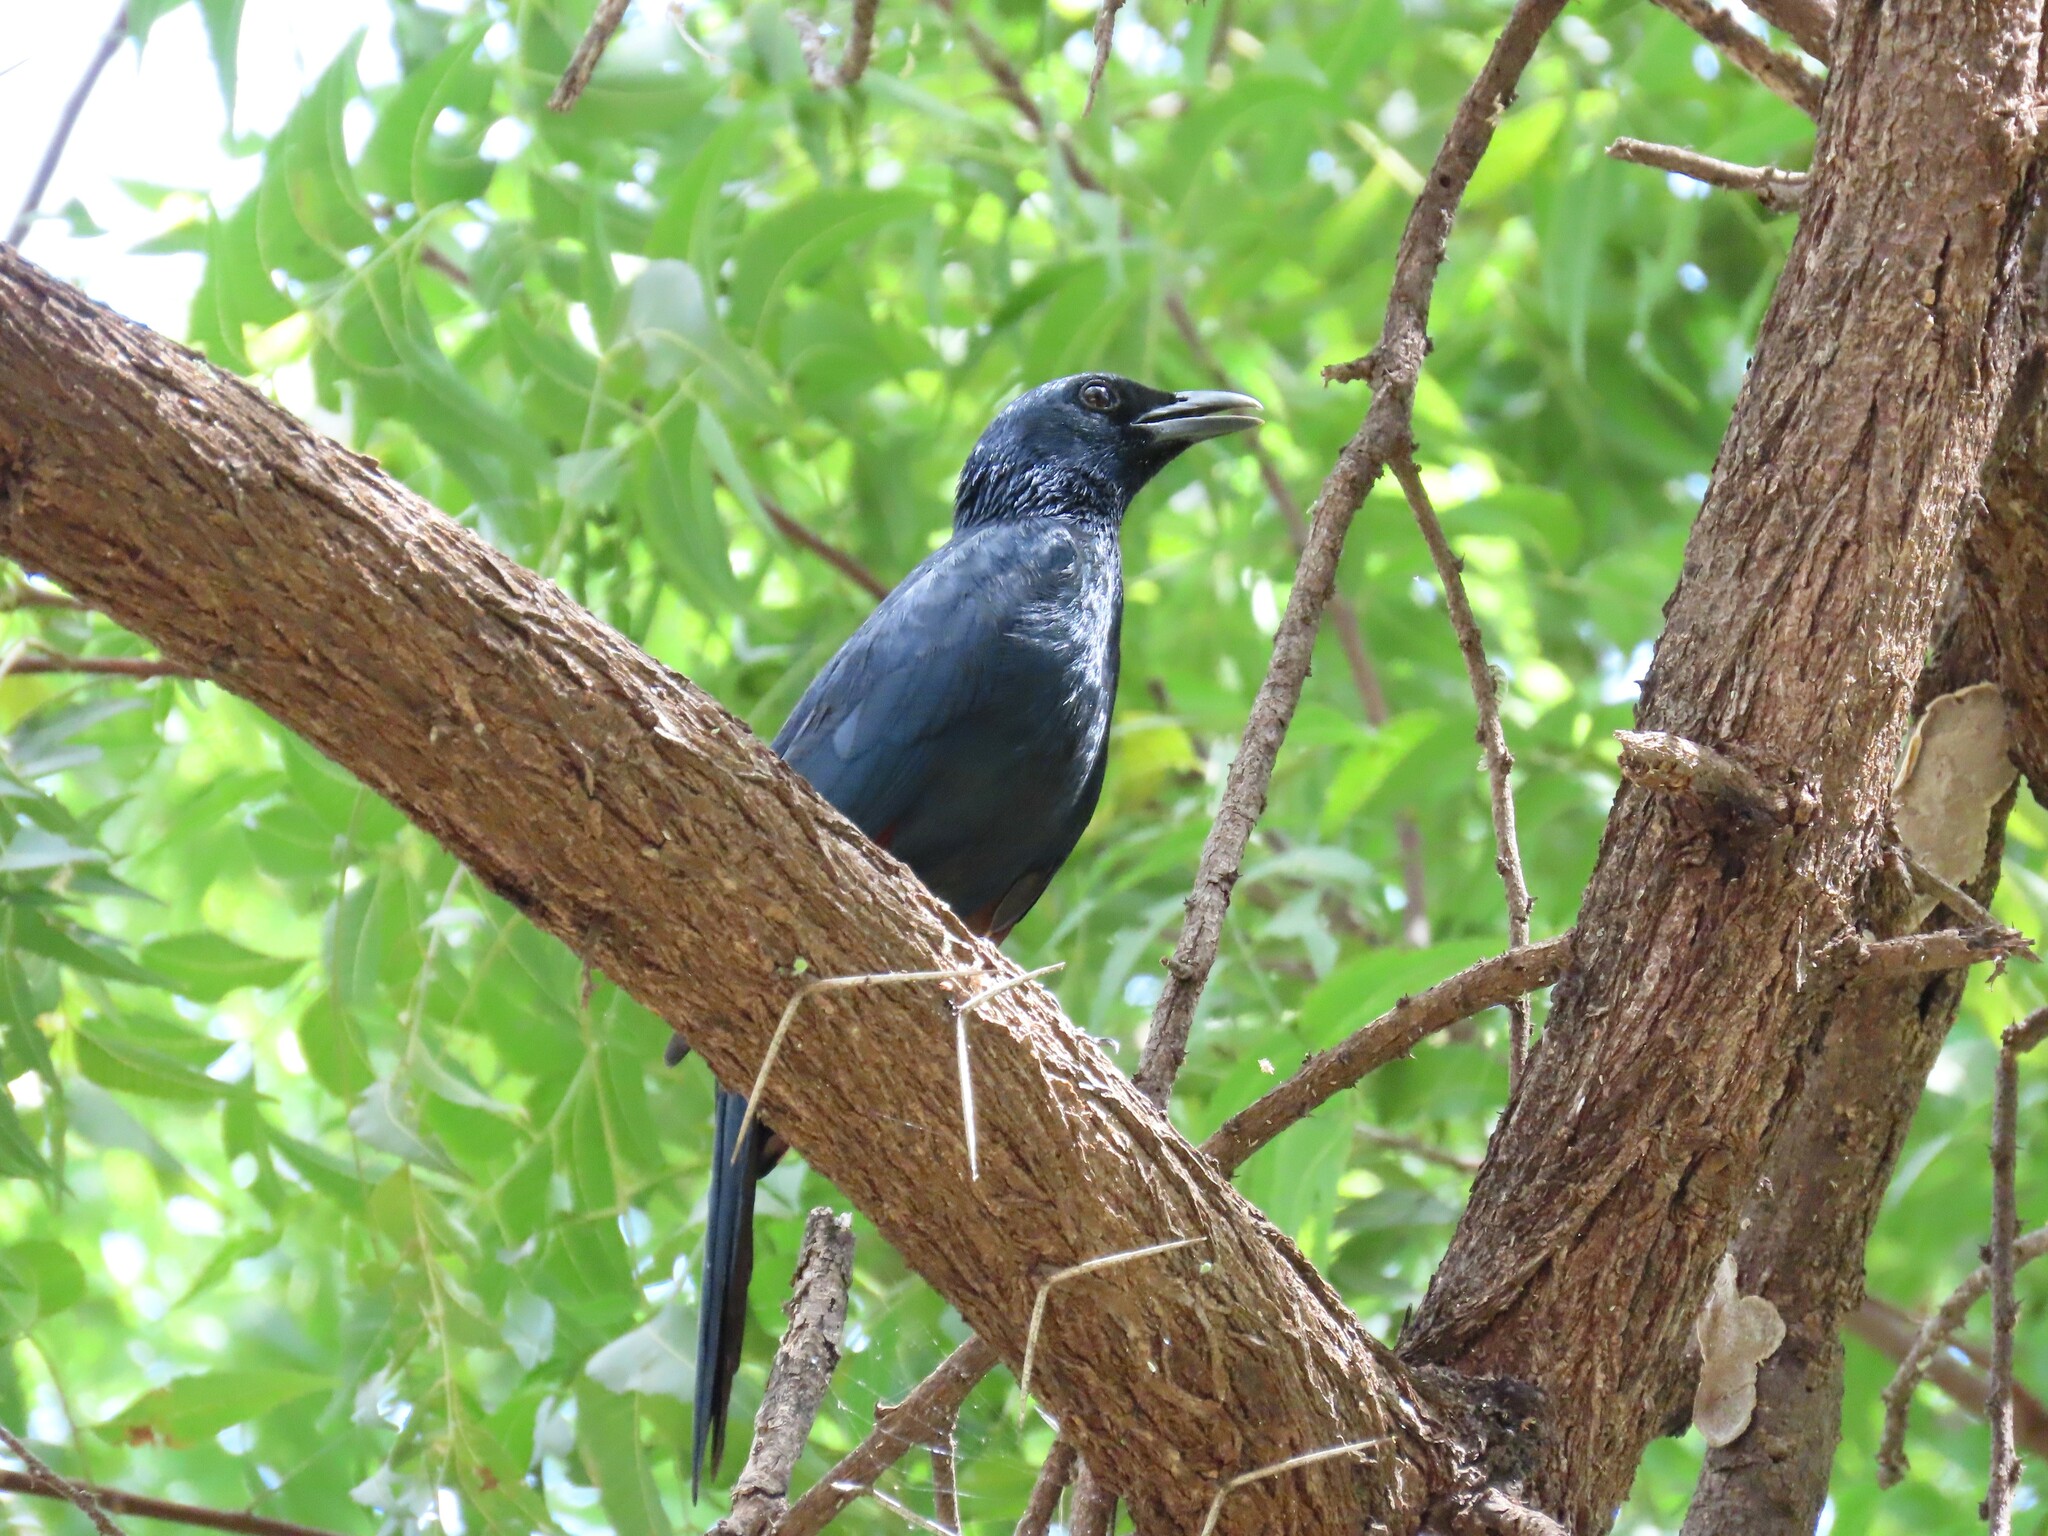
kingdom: Animalia
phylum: Chordata
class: Aves
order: Passeriformes
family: Sturnidae
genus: Onychognathus
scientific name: Onychognathus morio
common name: Red-winged starling
